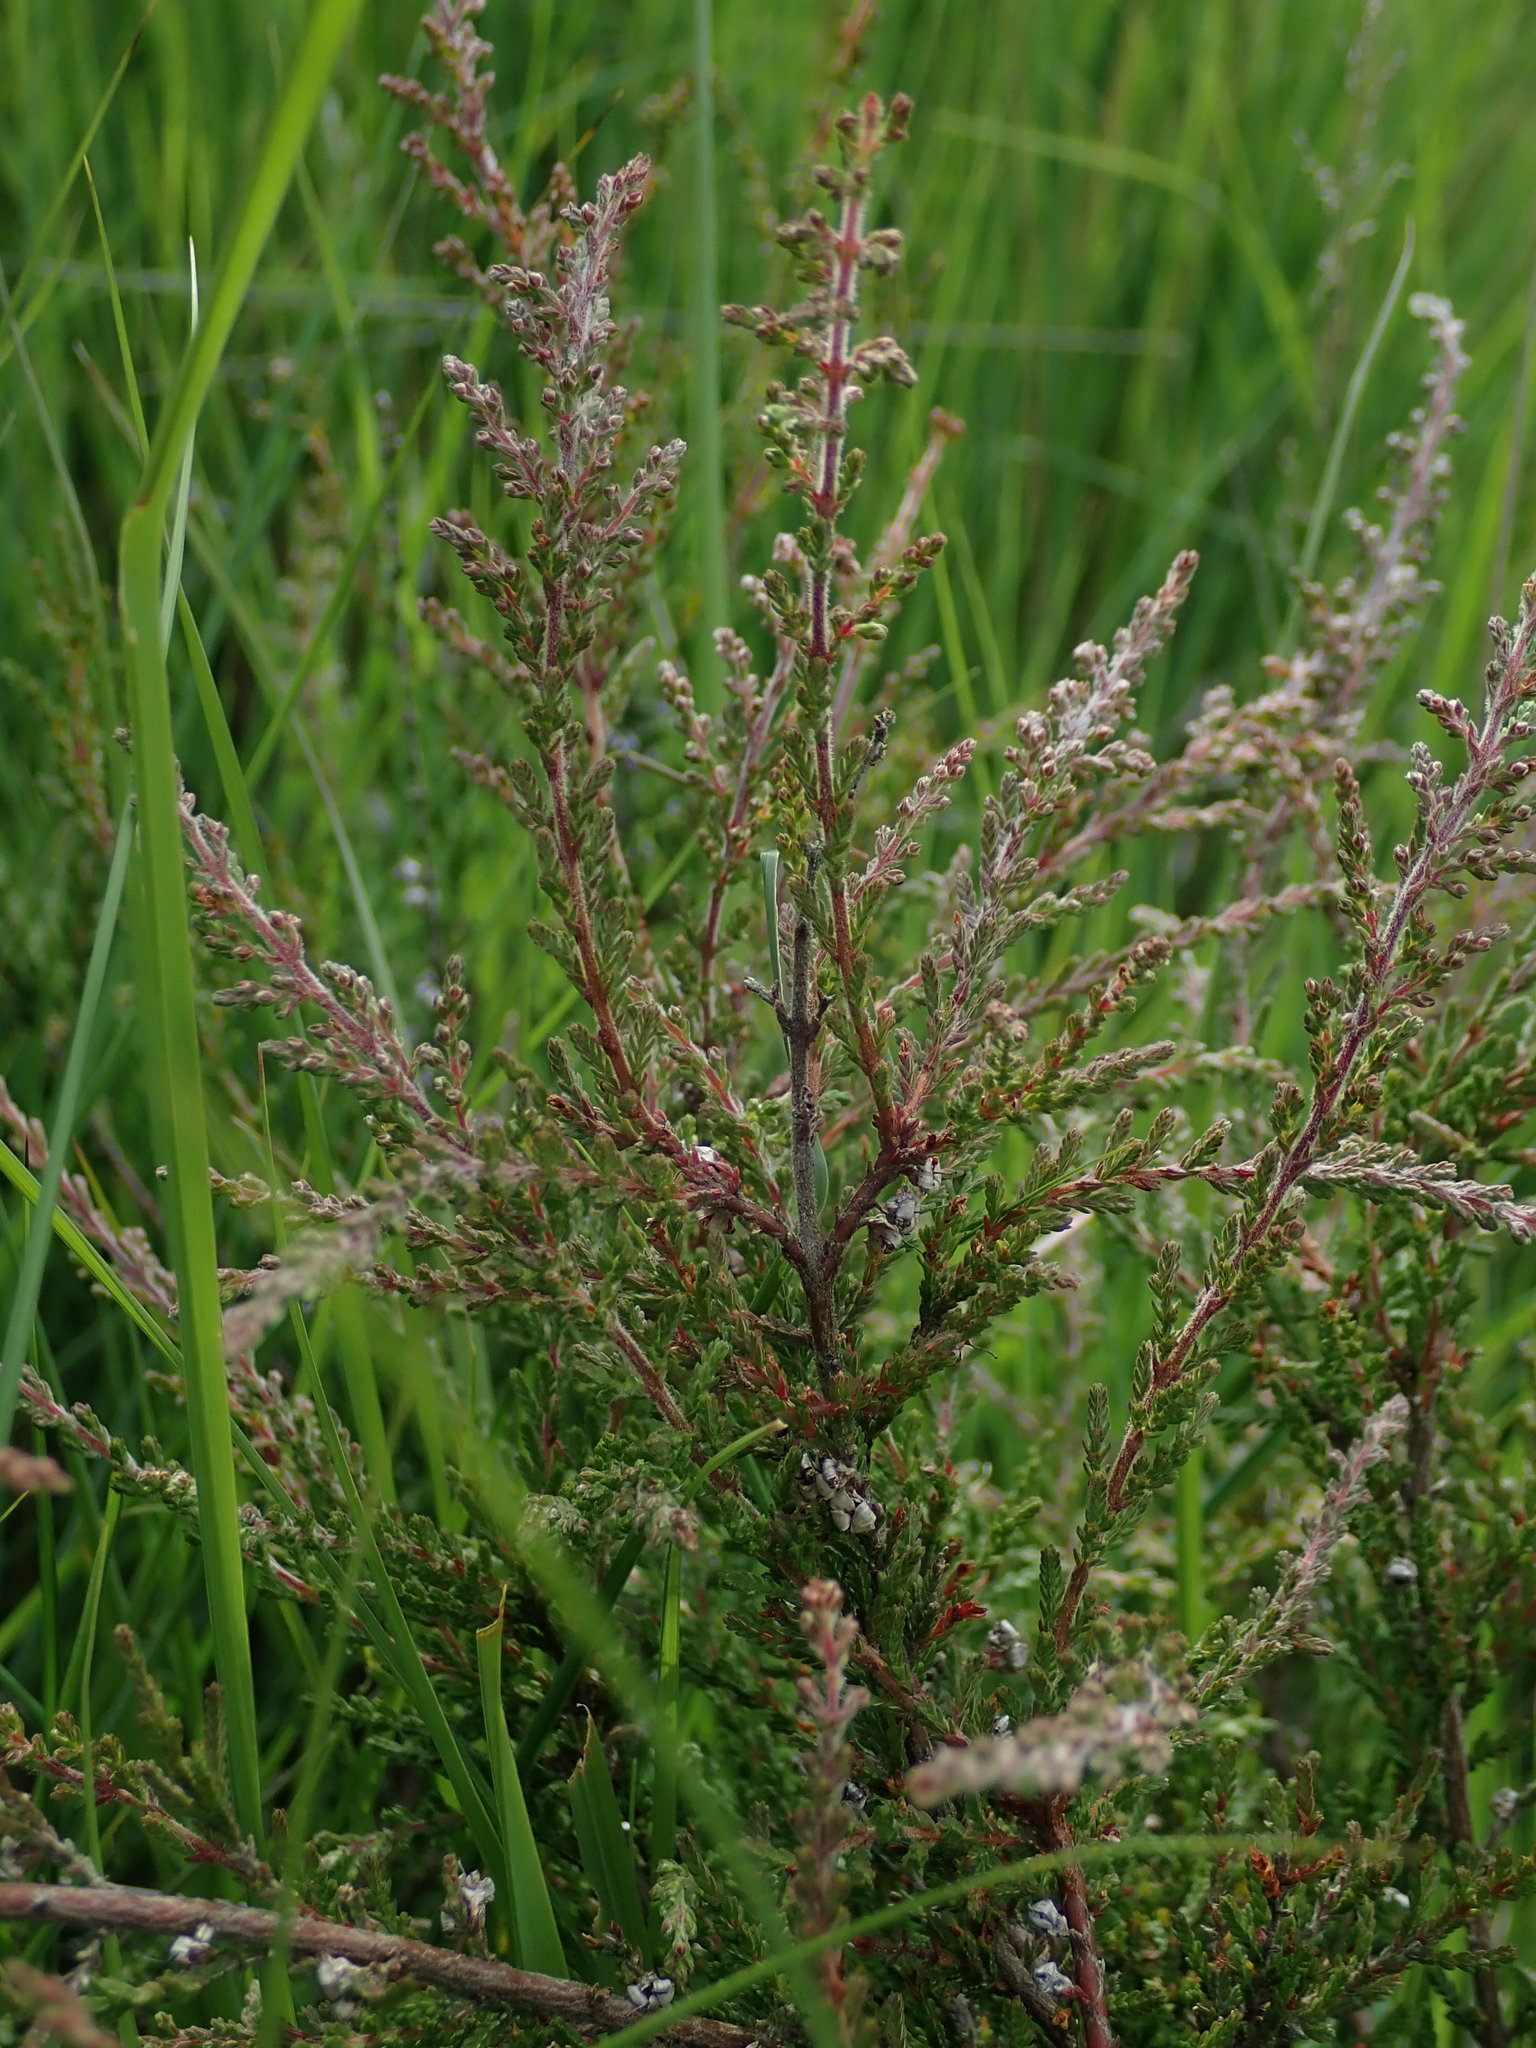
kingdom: Plantae
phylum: Tracheophyta
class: Magnoliopsida
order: Ericales
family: Ericaceae
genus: Calluna
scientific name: Calluna vulgaris
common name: Heather
